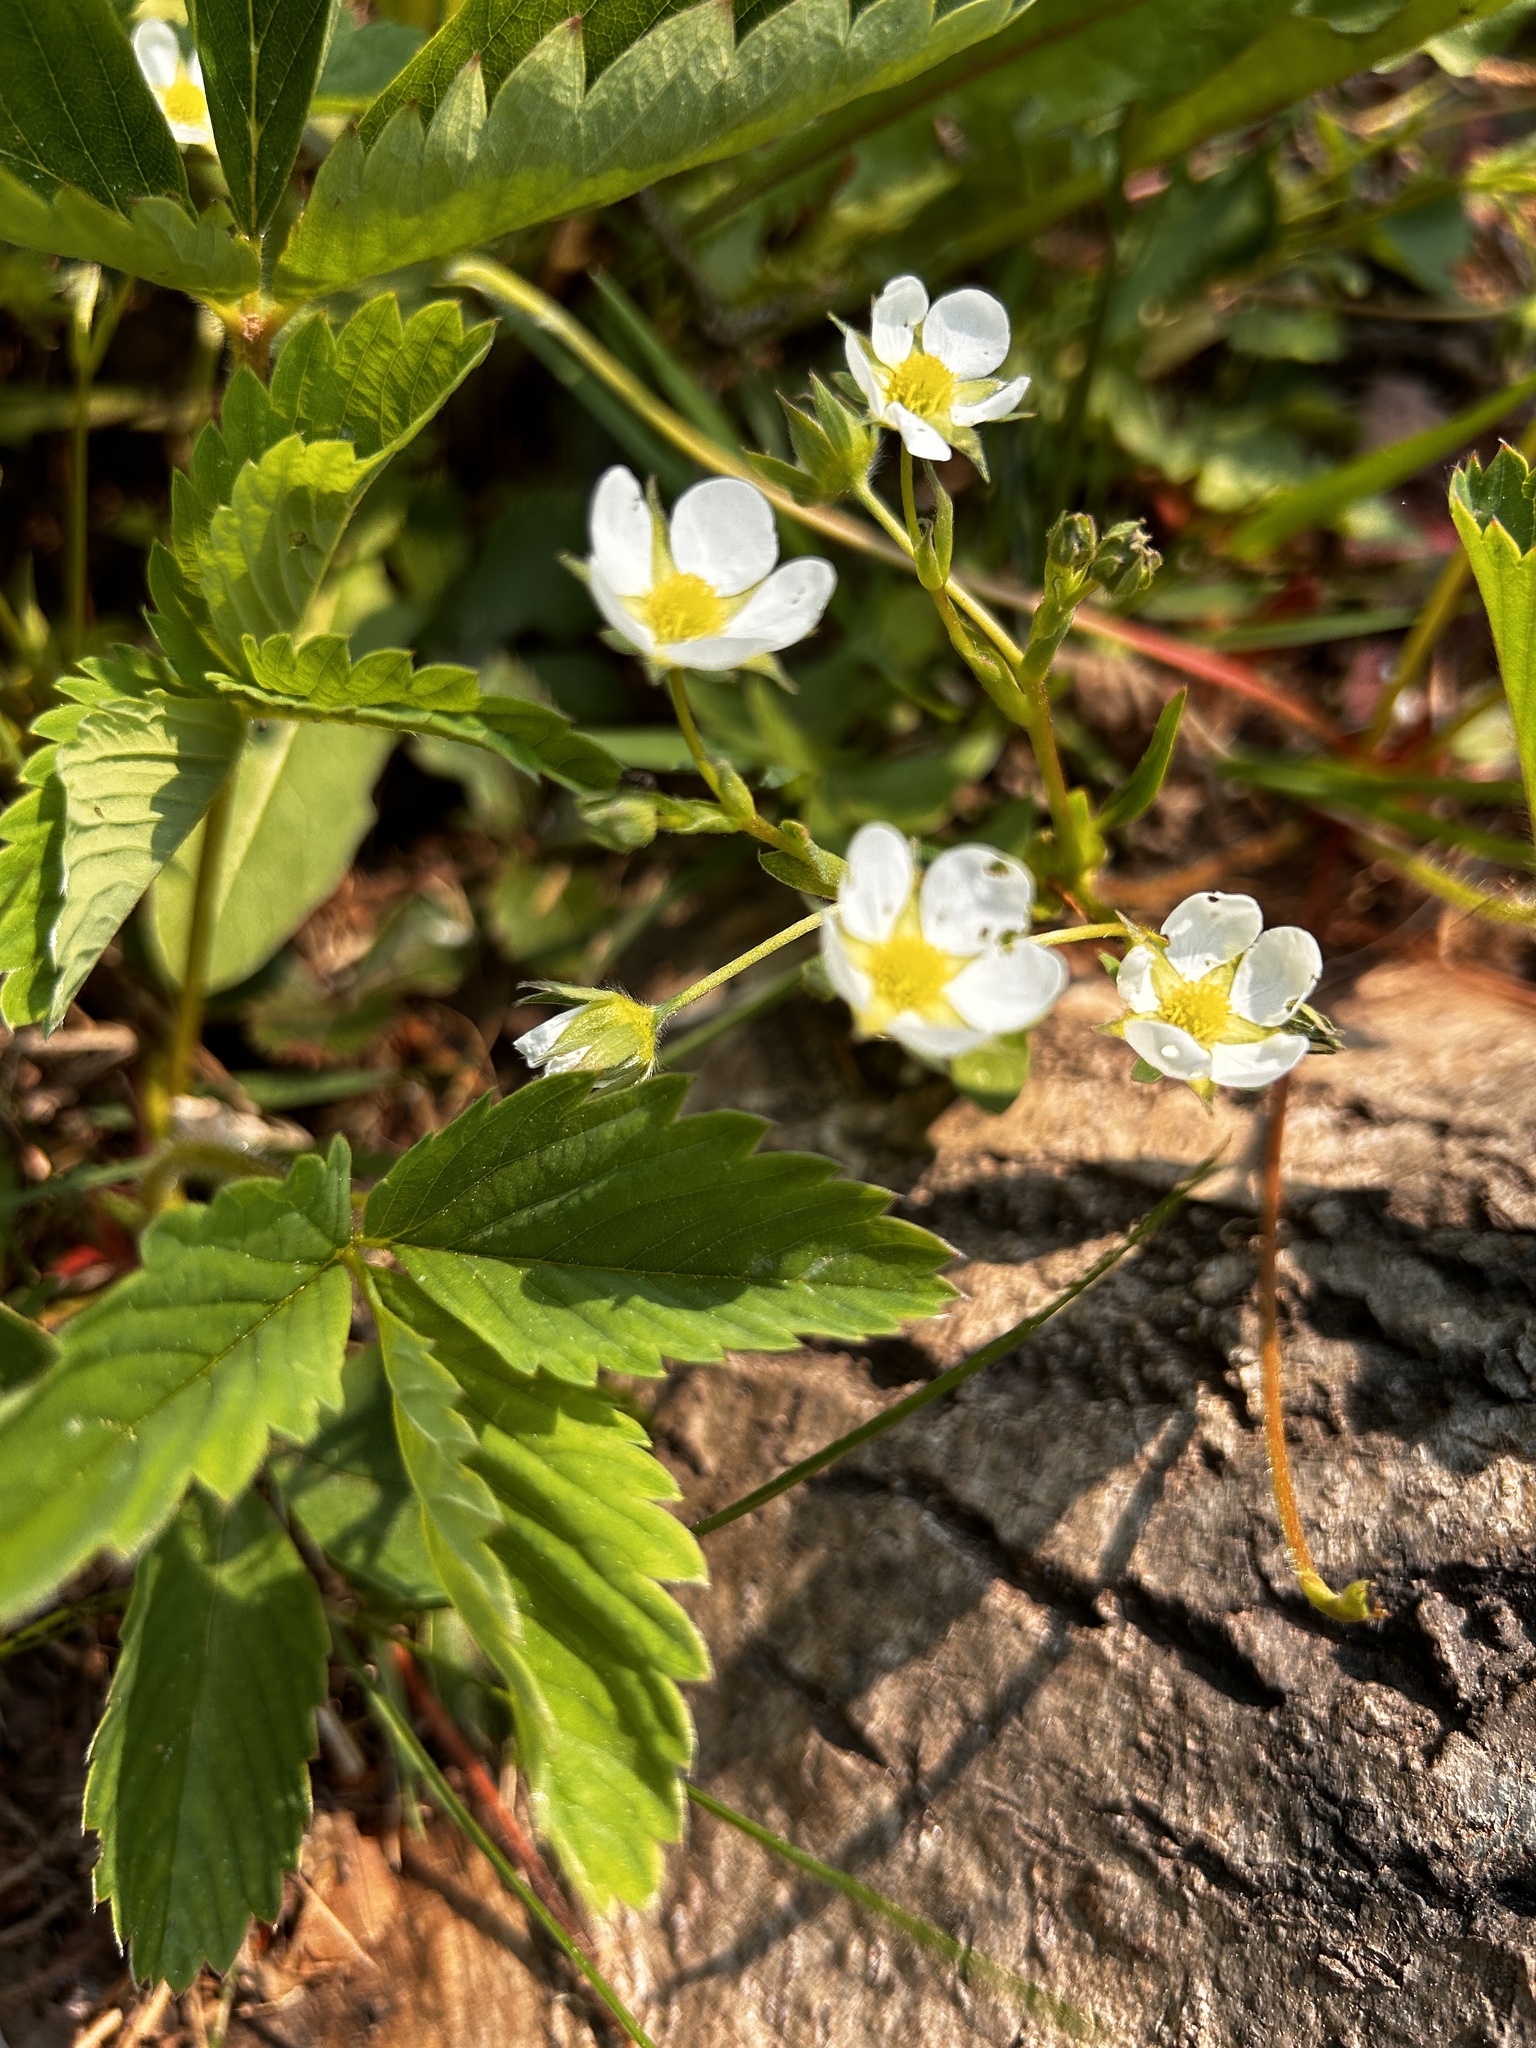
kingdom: Plantae
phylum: Tracheophyta
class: Magnoliopsida
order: Rosales
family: Rosaceae
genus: Fragaria
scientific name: Fragaria virginiana
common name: Thickleaved wild strawberry
